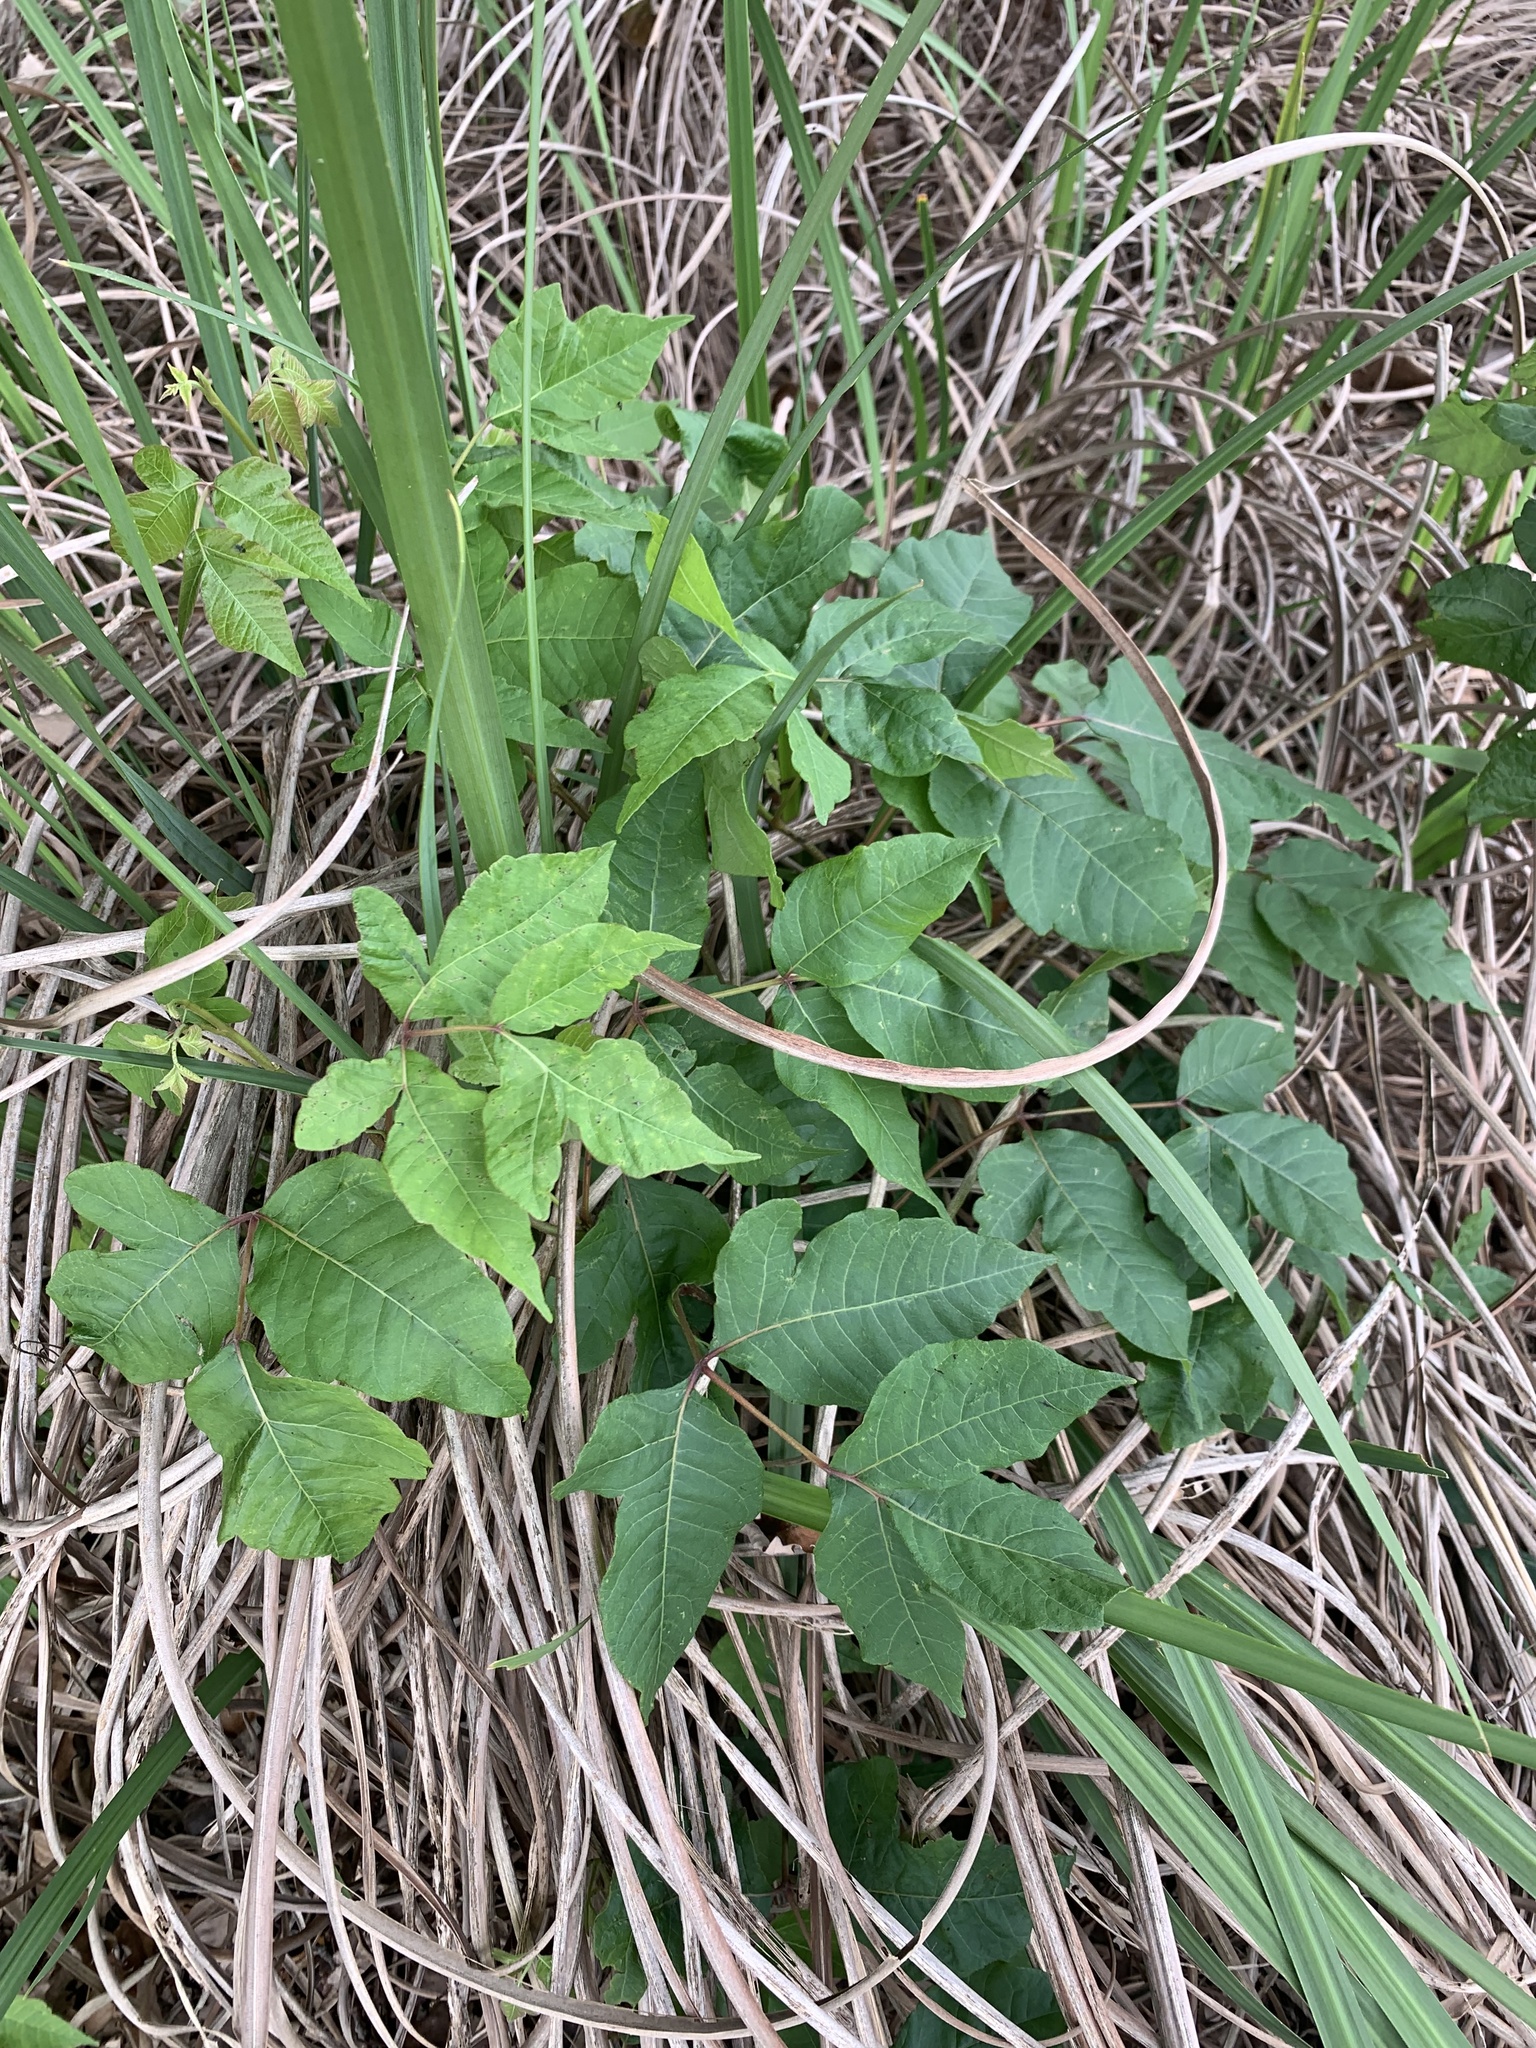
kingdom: Plantae
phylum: Tracheophyta
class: Magnoliopsida
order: Sapindales
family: Anacardiaceae
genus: Toxicodendron
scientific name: Toxicodendron radicans
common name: Poison ivy
